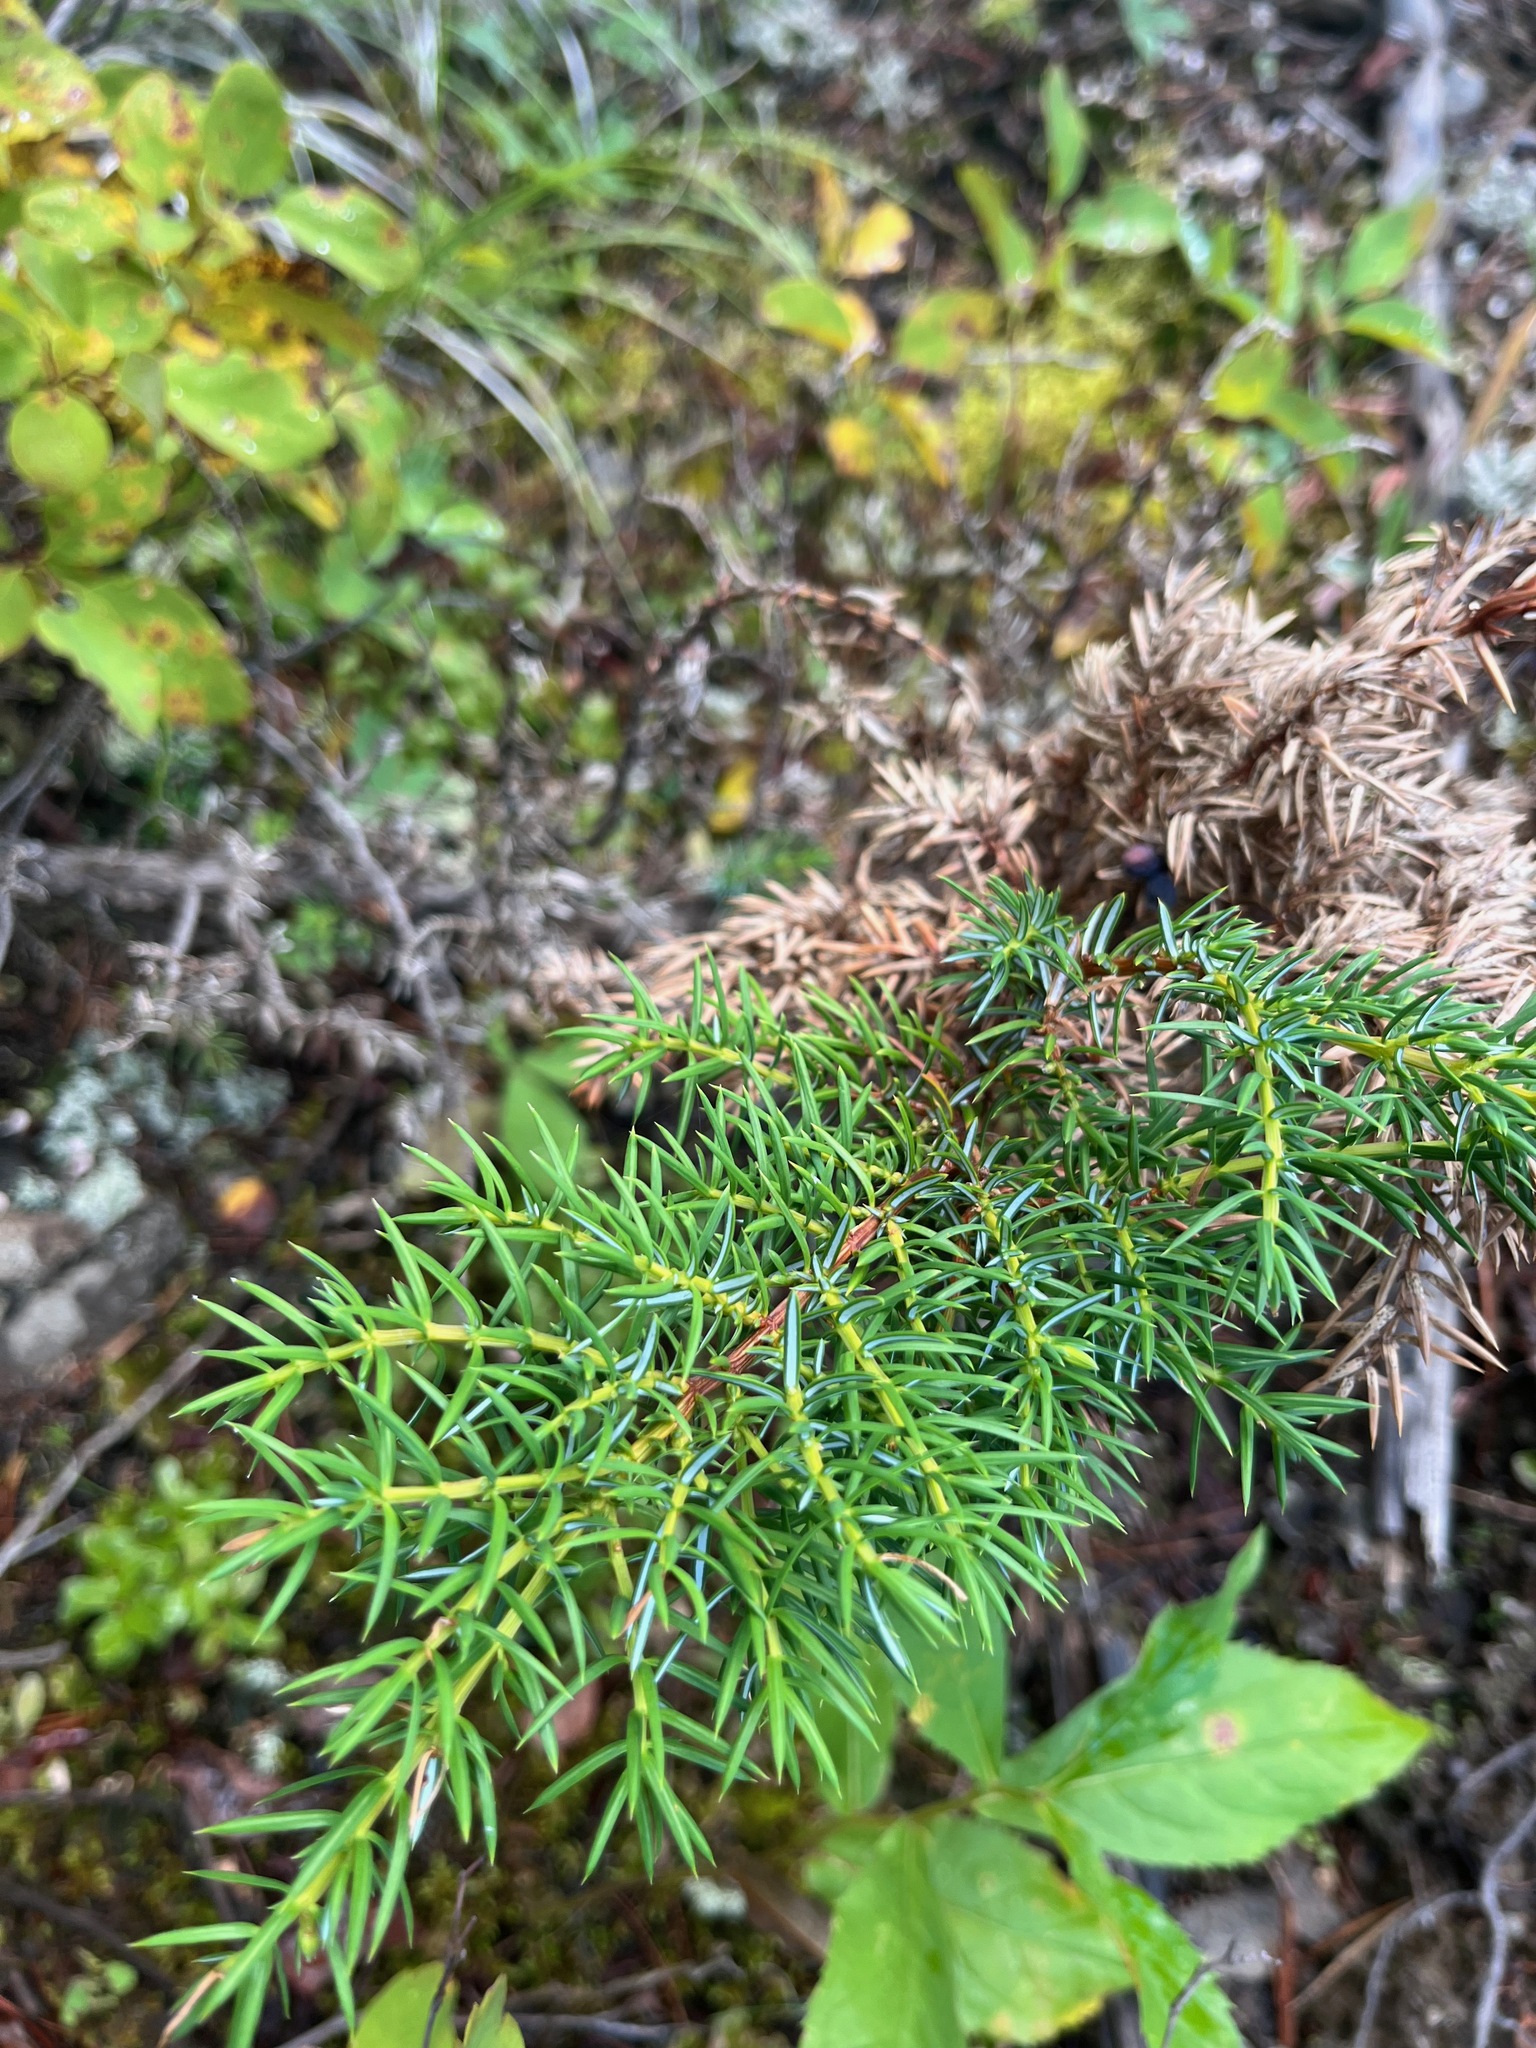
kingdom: Plantae
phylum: Tracheophyta
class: Pinopsida
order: Pinales
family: Cupressaceae
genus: Juniperus
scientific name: Juniperus communis
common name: Common juniper
